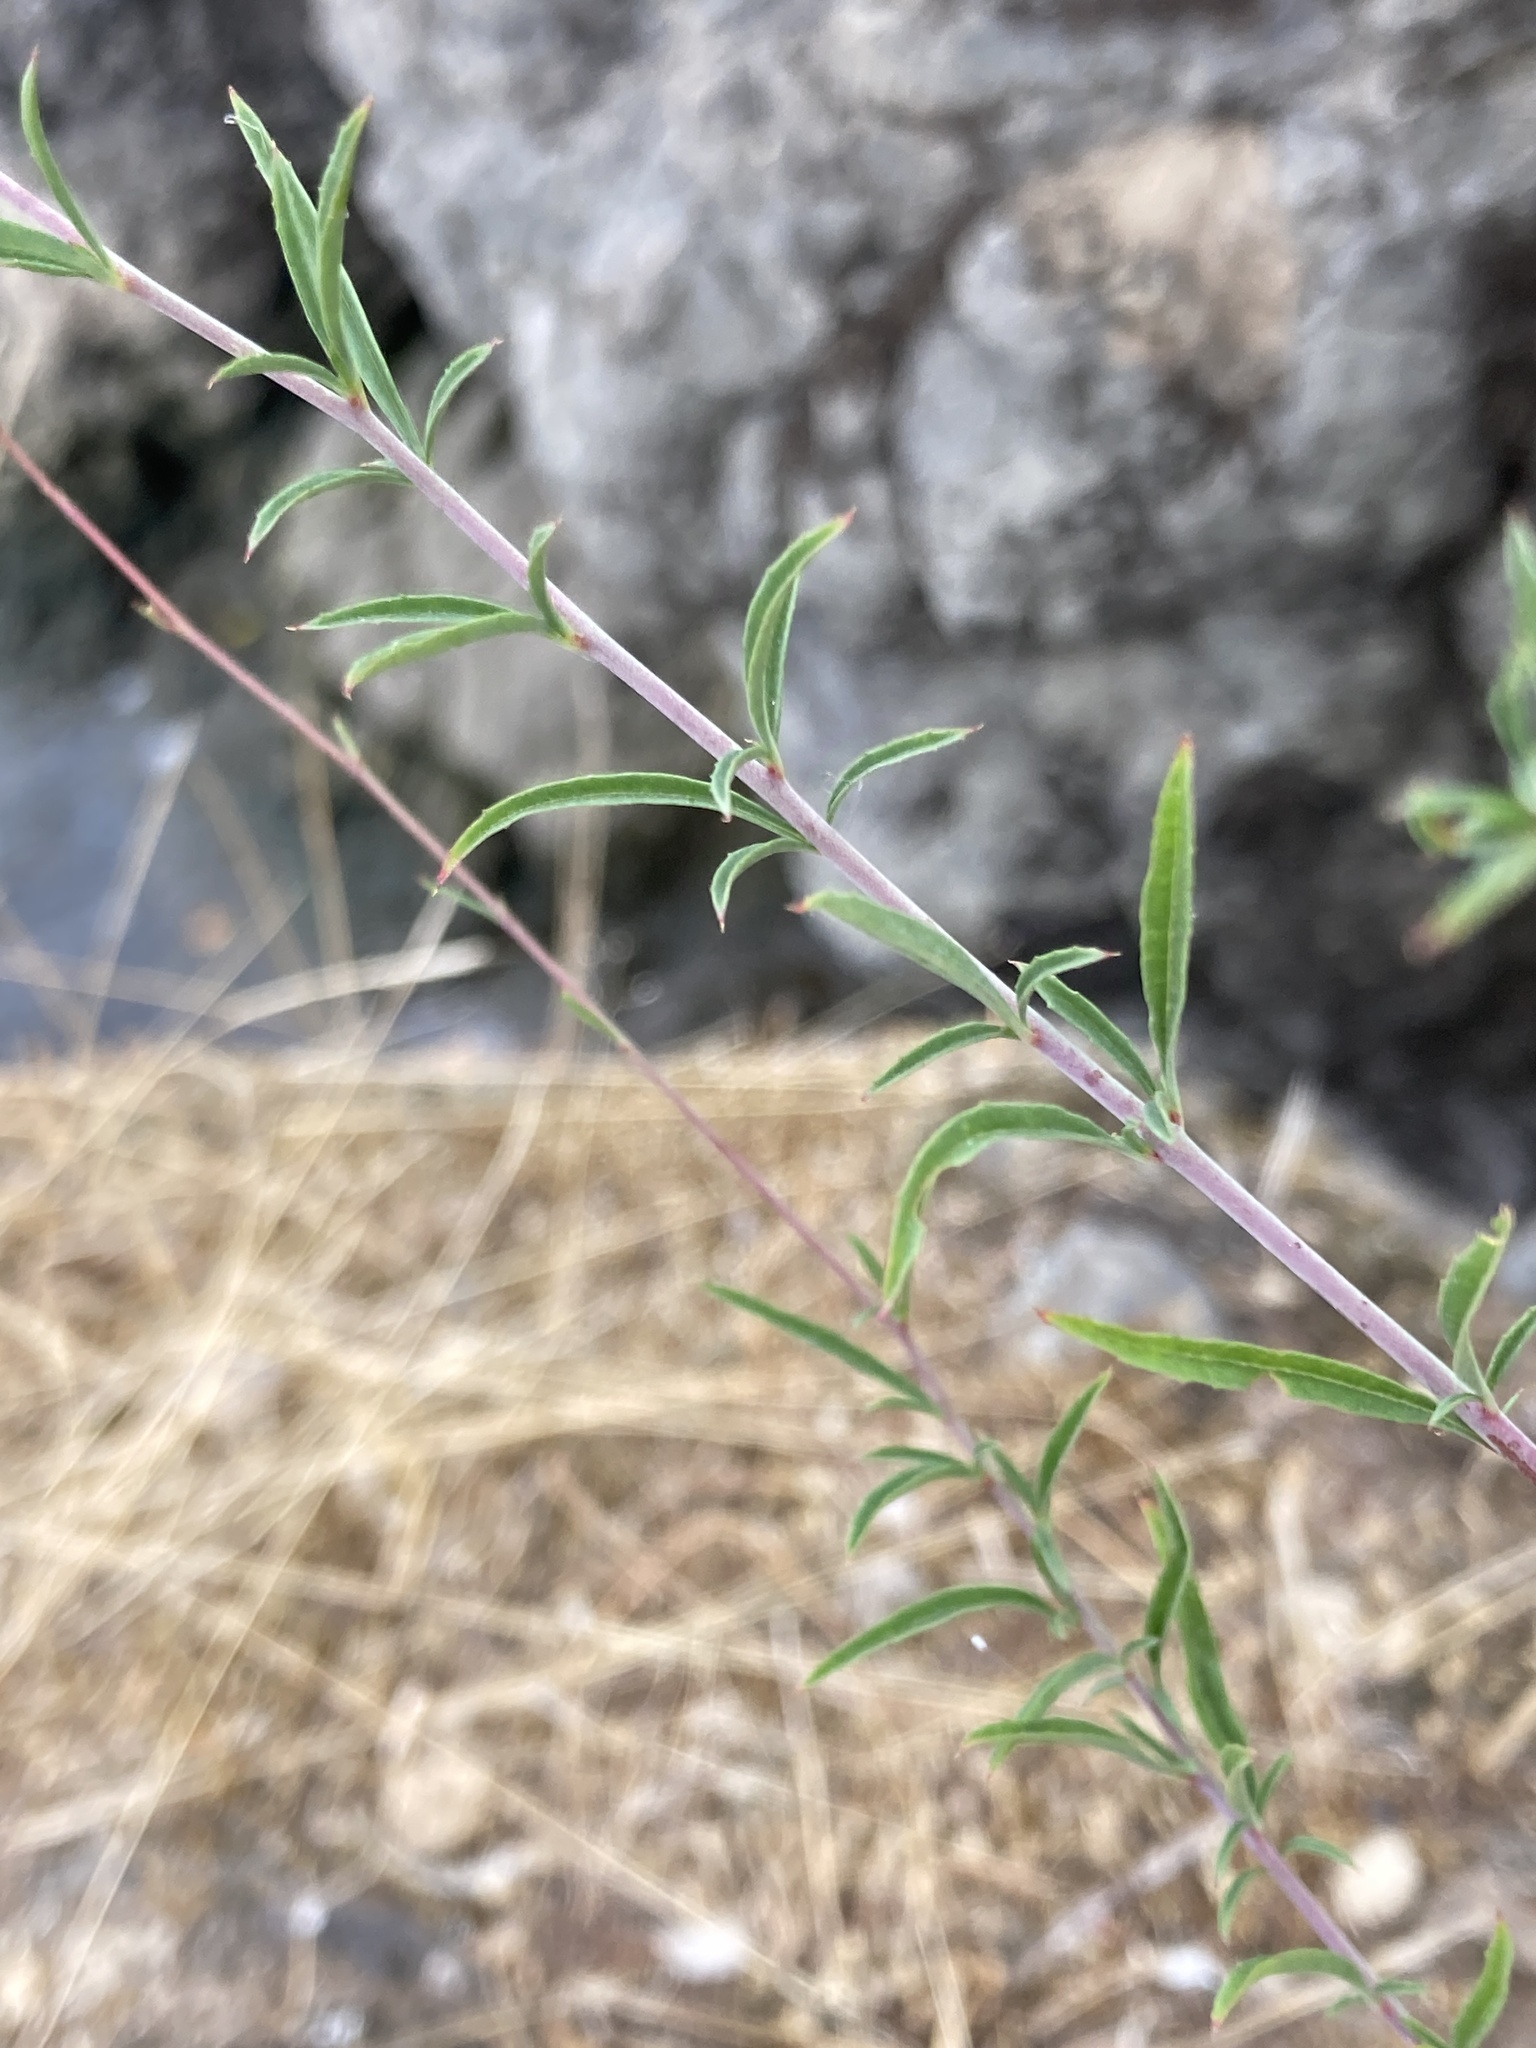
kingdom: Plantae
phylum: Tracheophyta
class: Magnoliopsida
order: Myrtales
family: Onagraceae
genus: Epilobium
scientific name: Epilobium brachycarpum
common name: Annual willowherb
